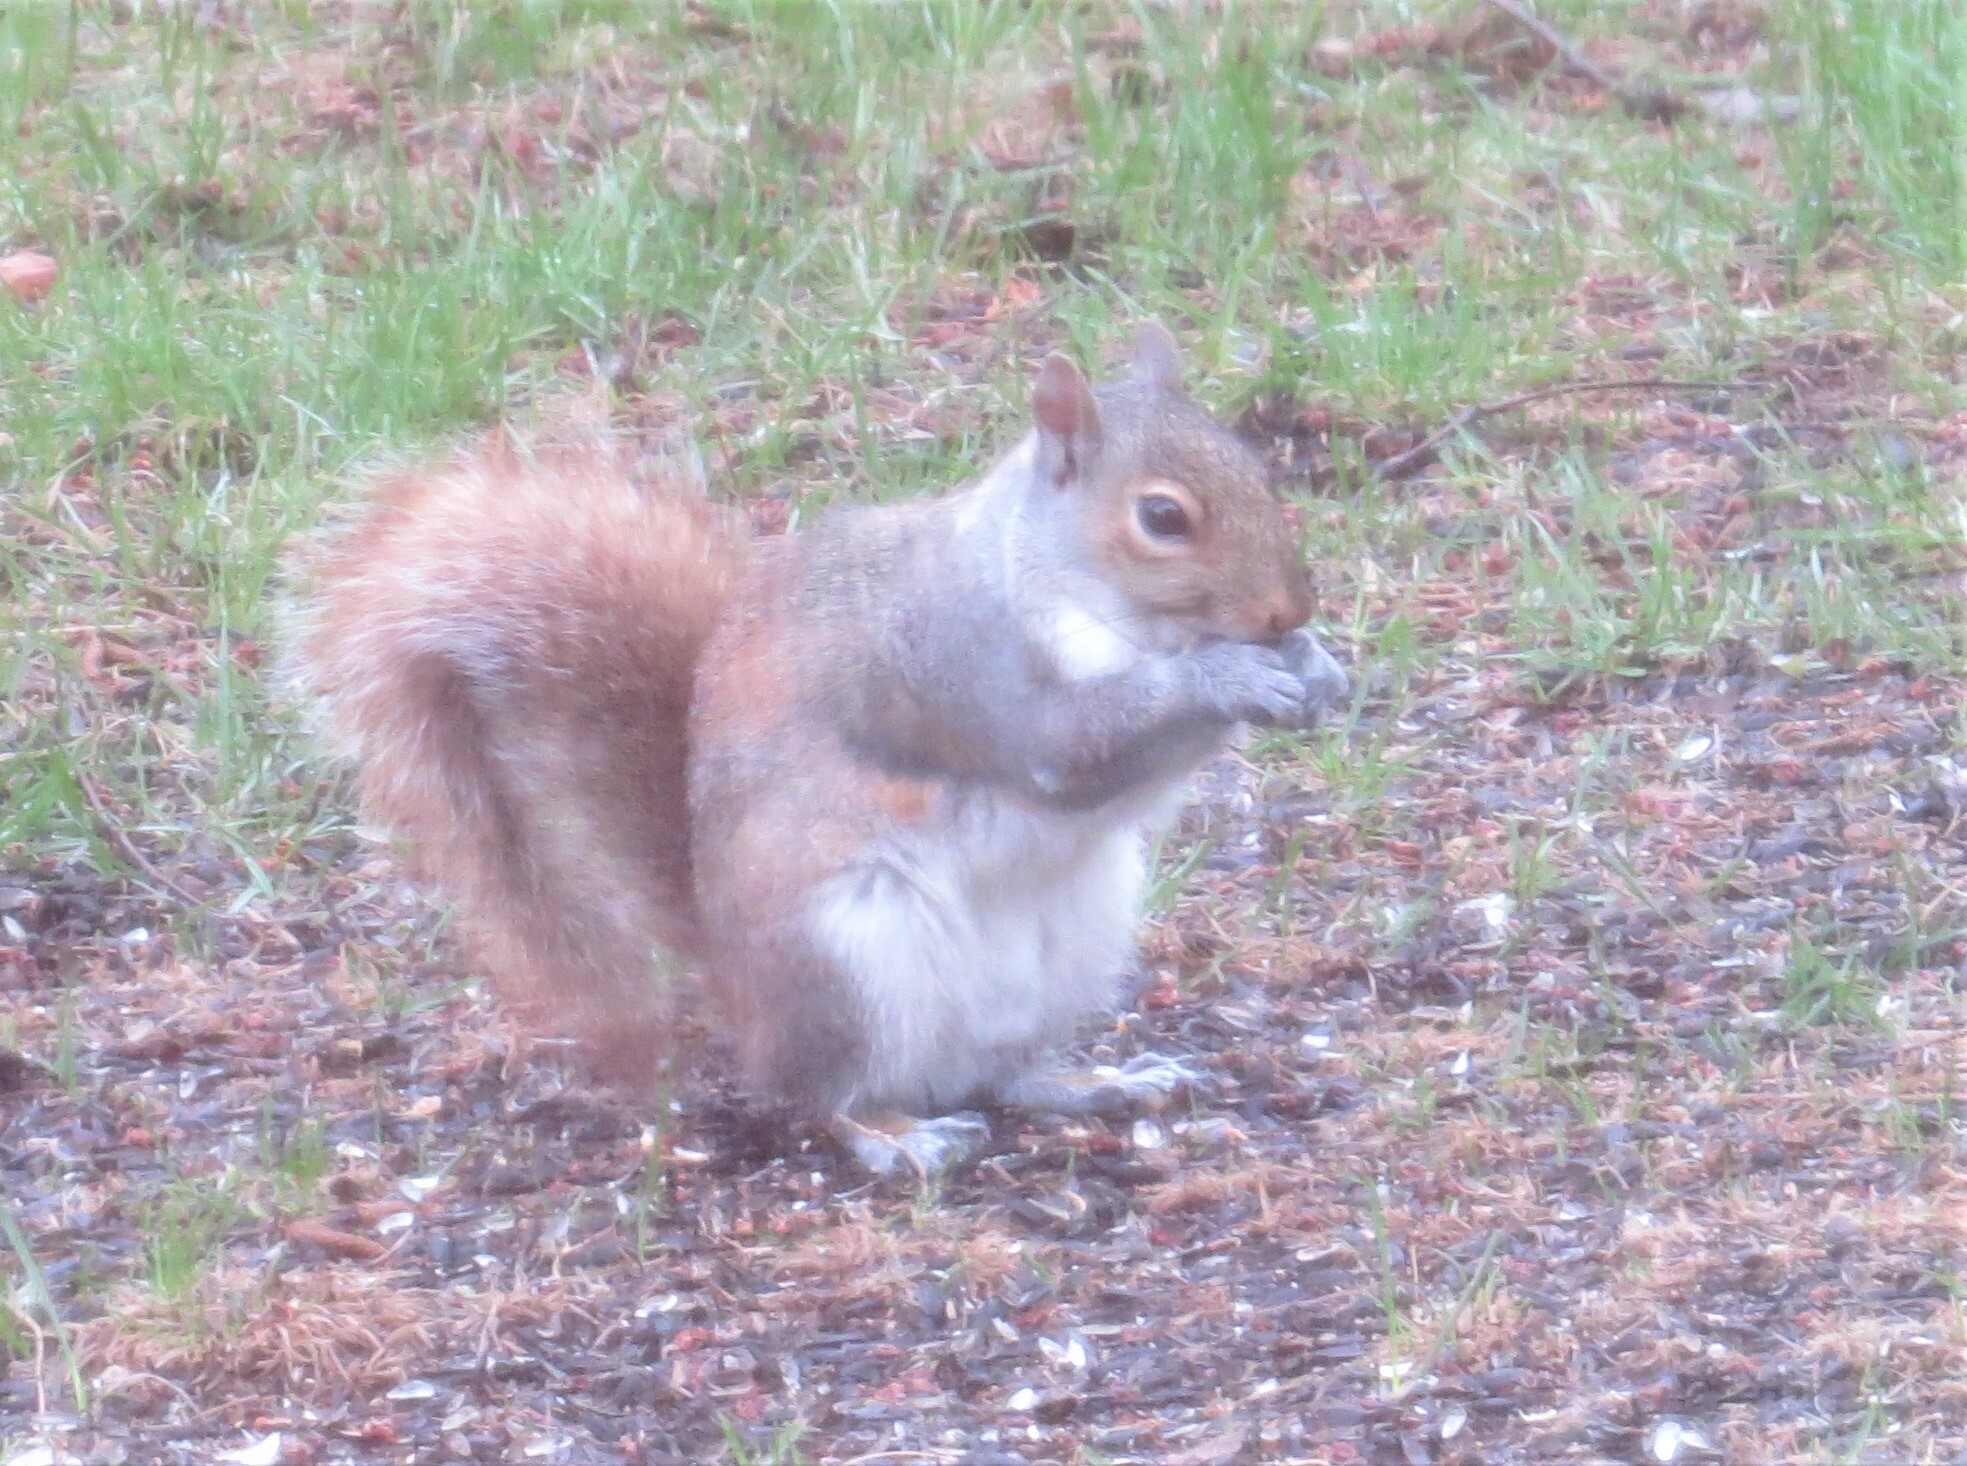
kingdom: Animalia
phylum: Chordata
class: Mammalia
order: Rodentia
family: Sciuridae
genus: Sciurus
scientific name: Sciurus carolinensis
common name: Eastern gray squirrel
